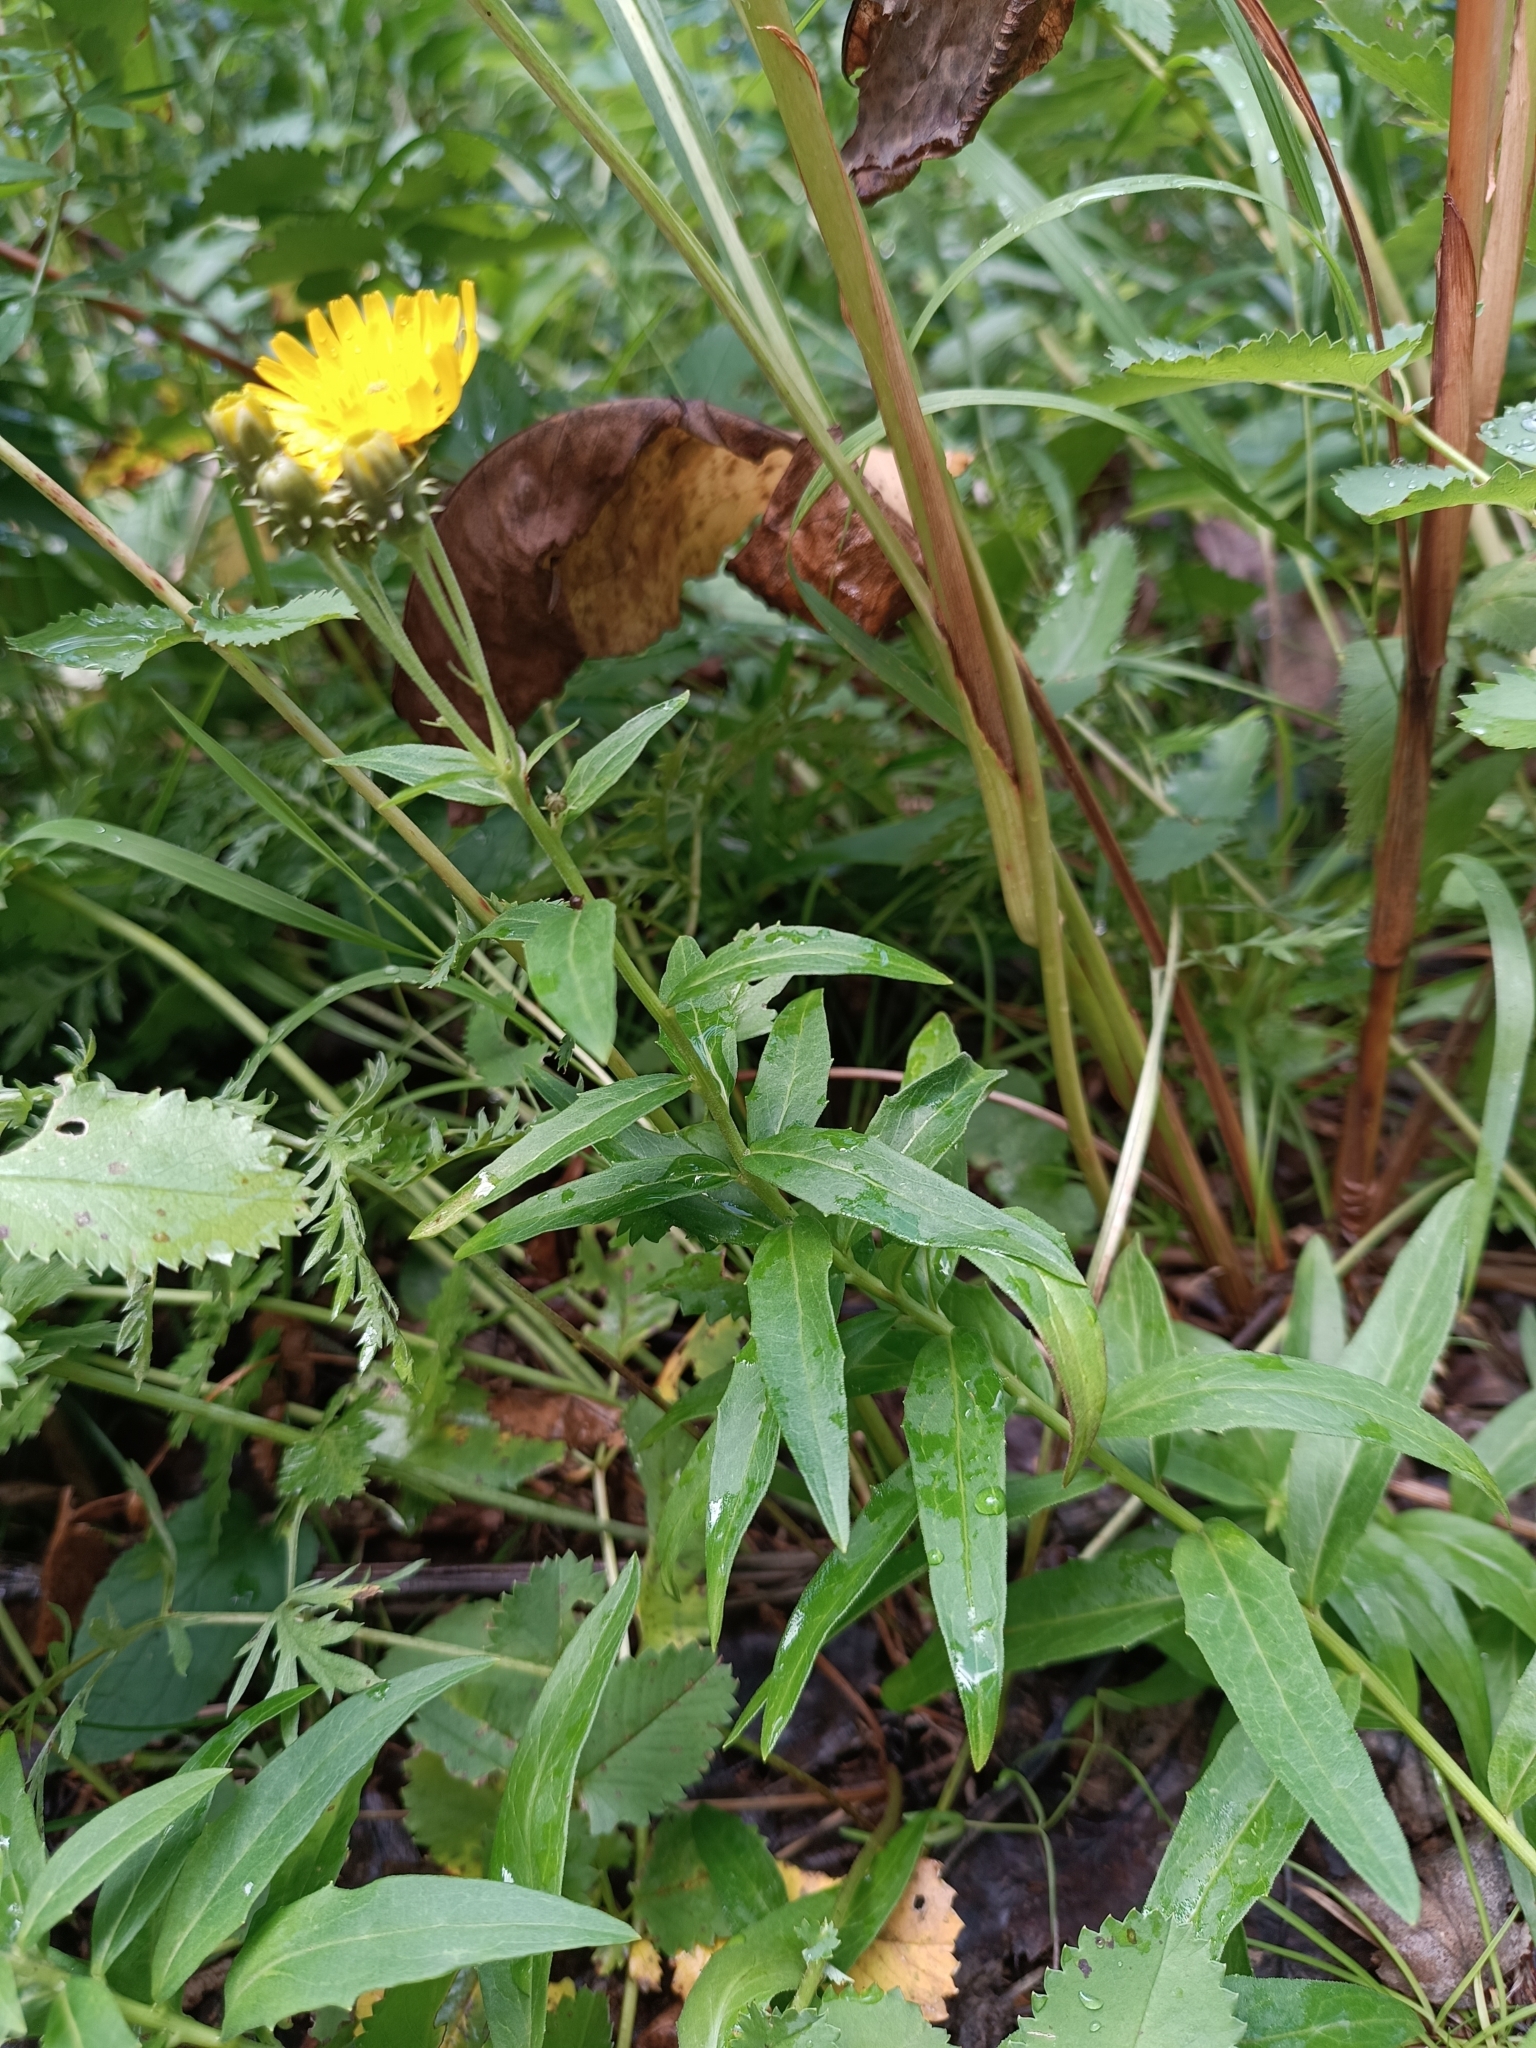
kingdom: Plantae
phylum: Tracheophyta
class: Magnoliopsida
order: Asterales
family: Asteraceae
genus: Hieracium
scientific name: Hieracium umbellatum
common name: Northern hawkweed
